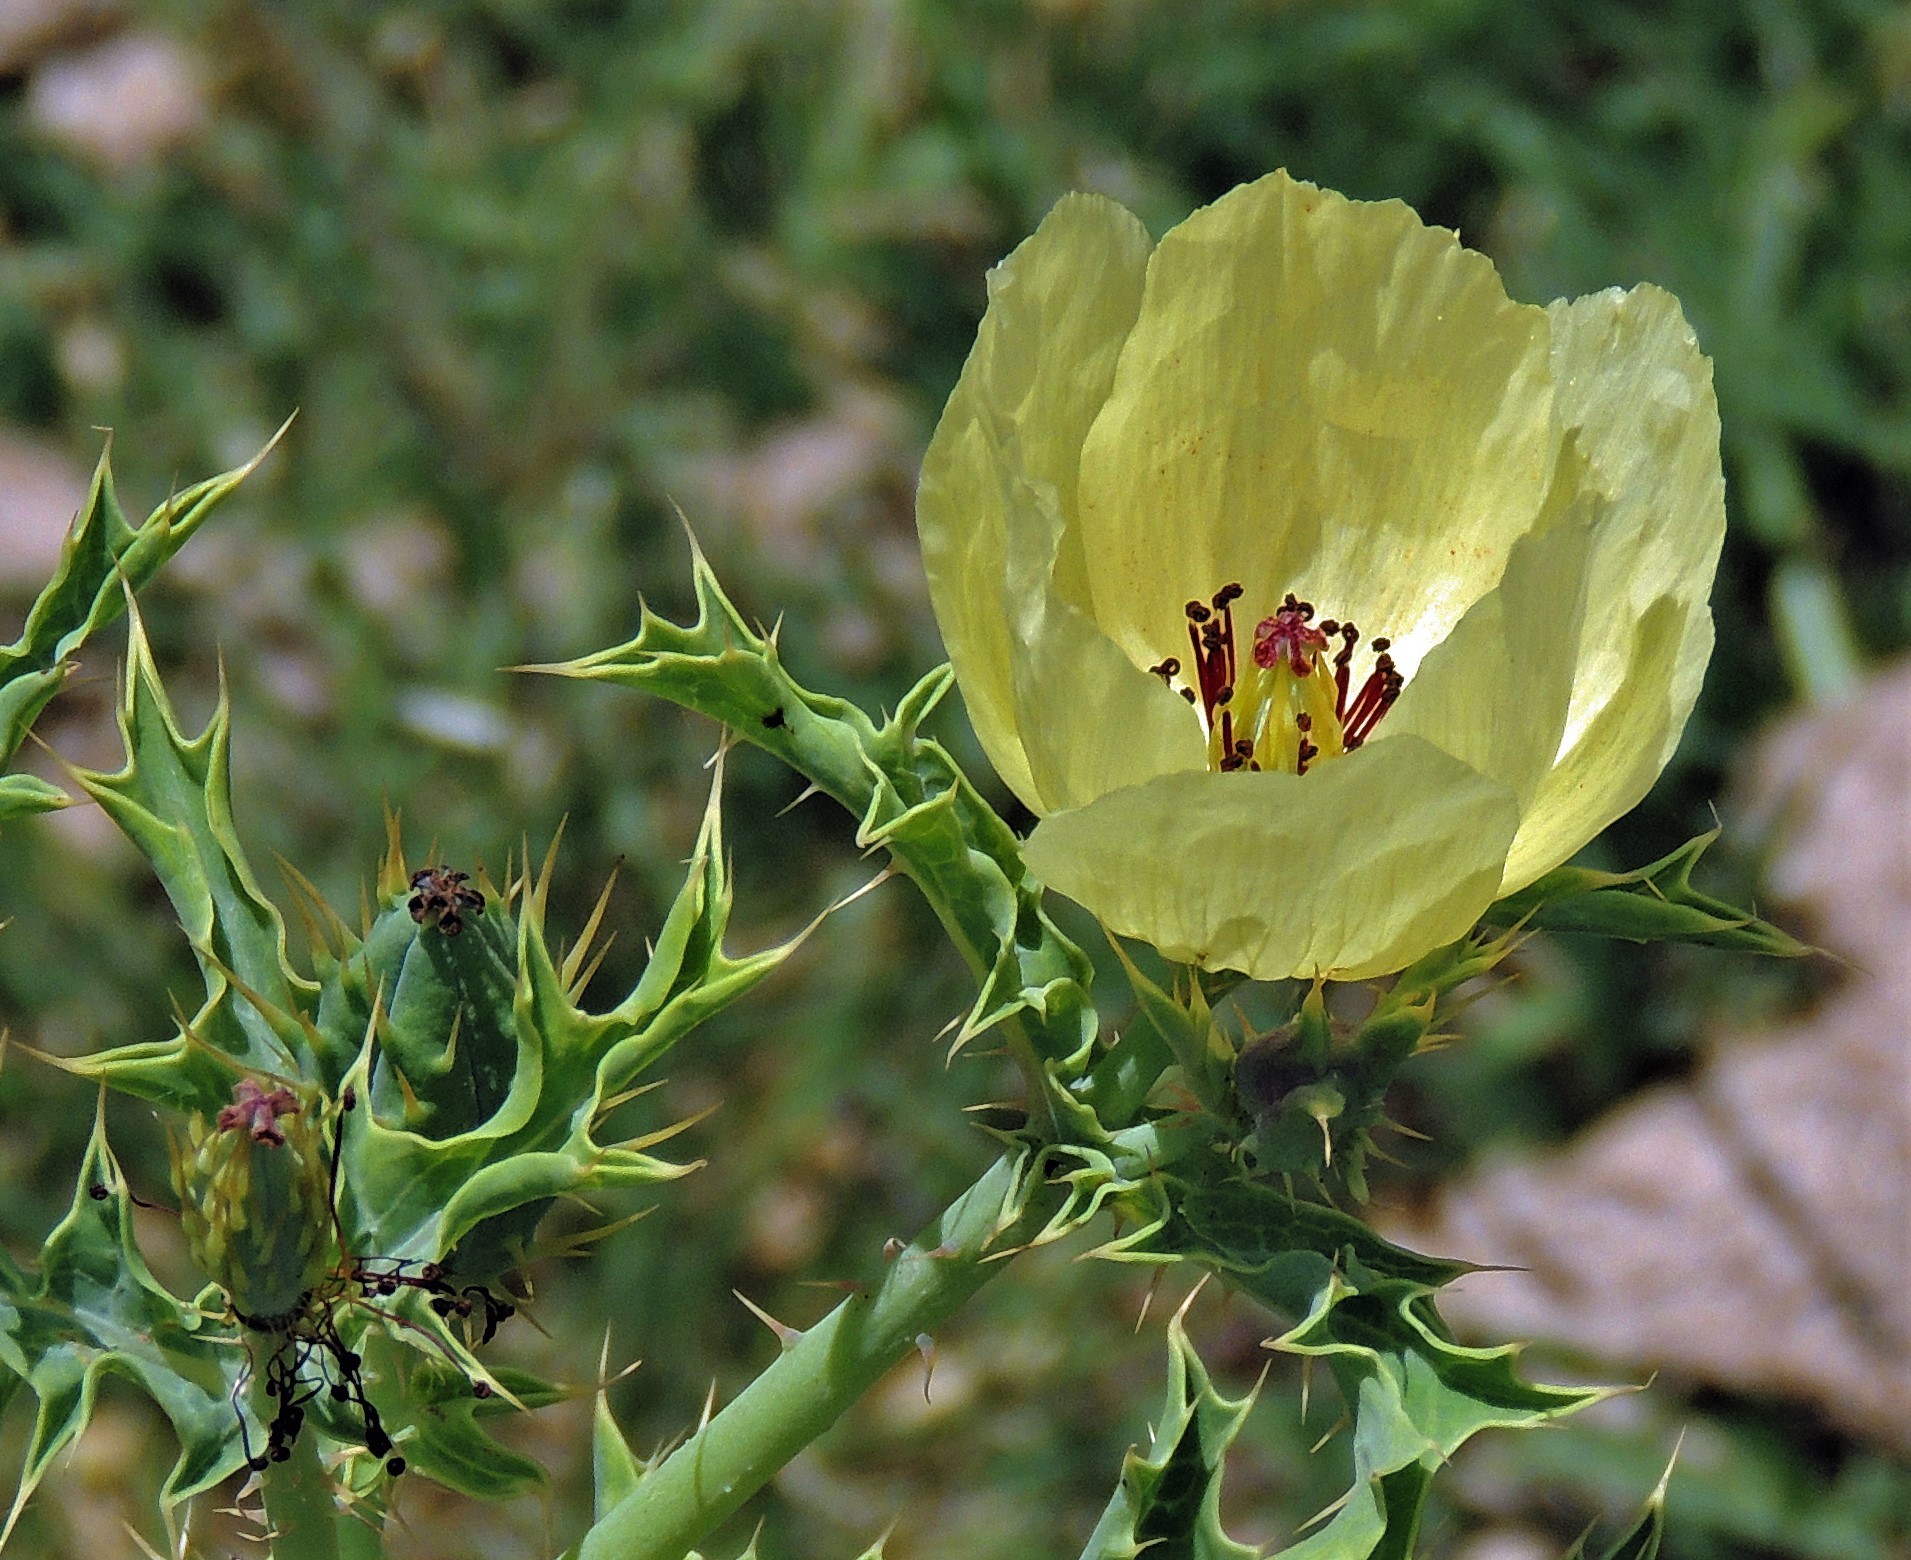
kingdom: Plantae
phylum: Tracheophyta
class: Magnoliopsida
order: Ranunculales
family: Papaveraceae
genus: Argemone
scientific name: Argemone subfusiformis
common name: American-poppy
